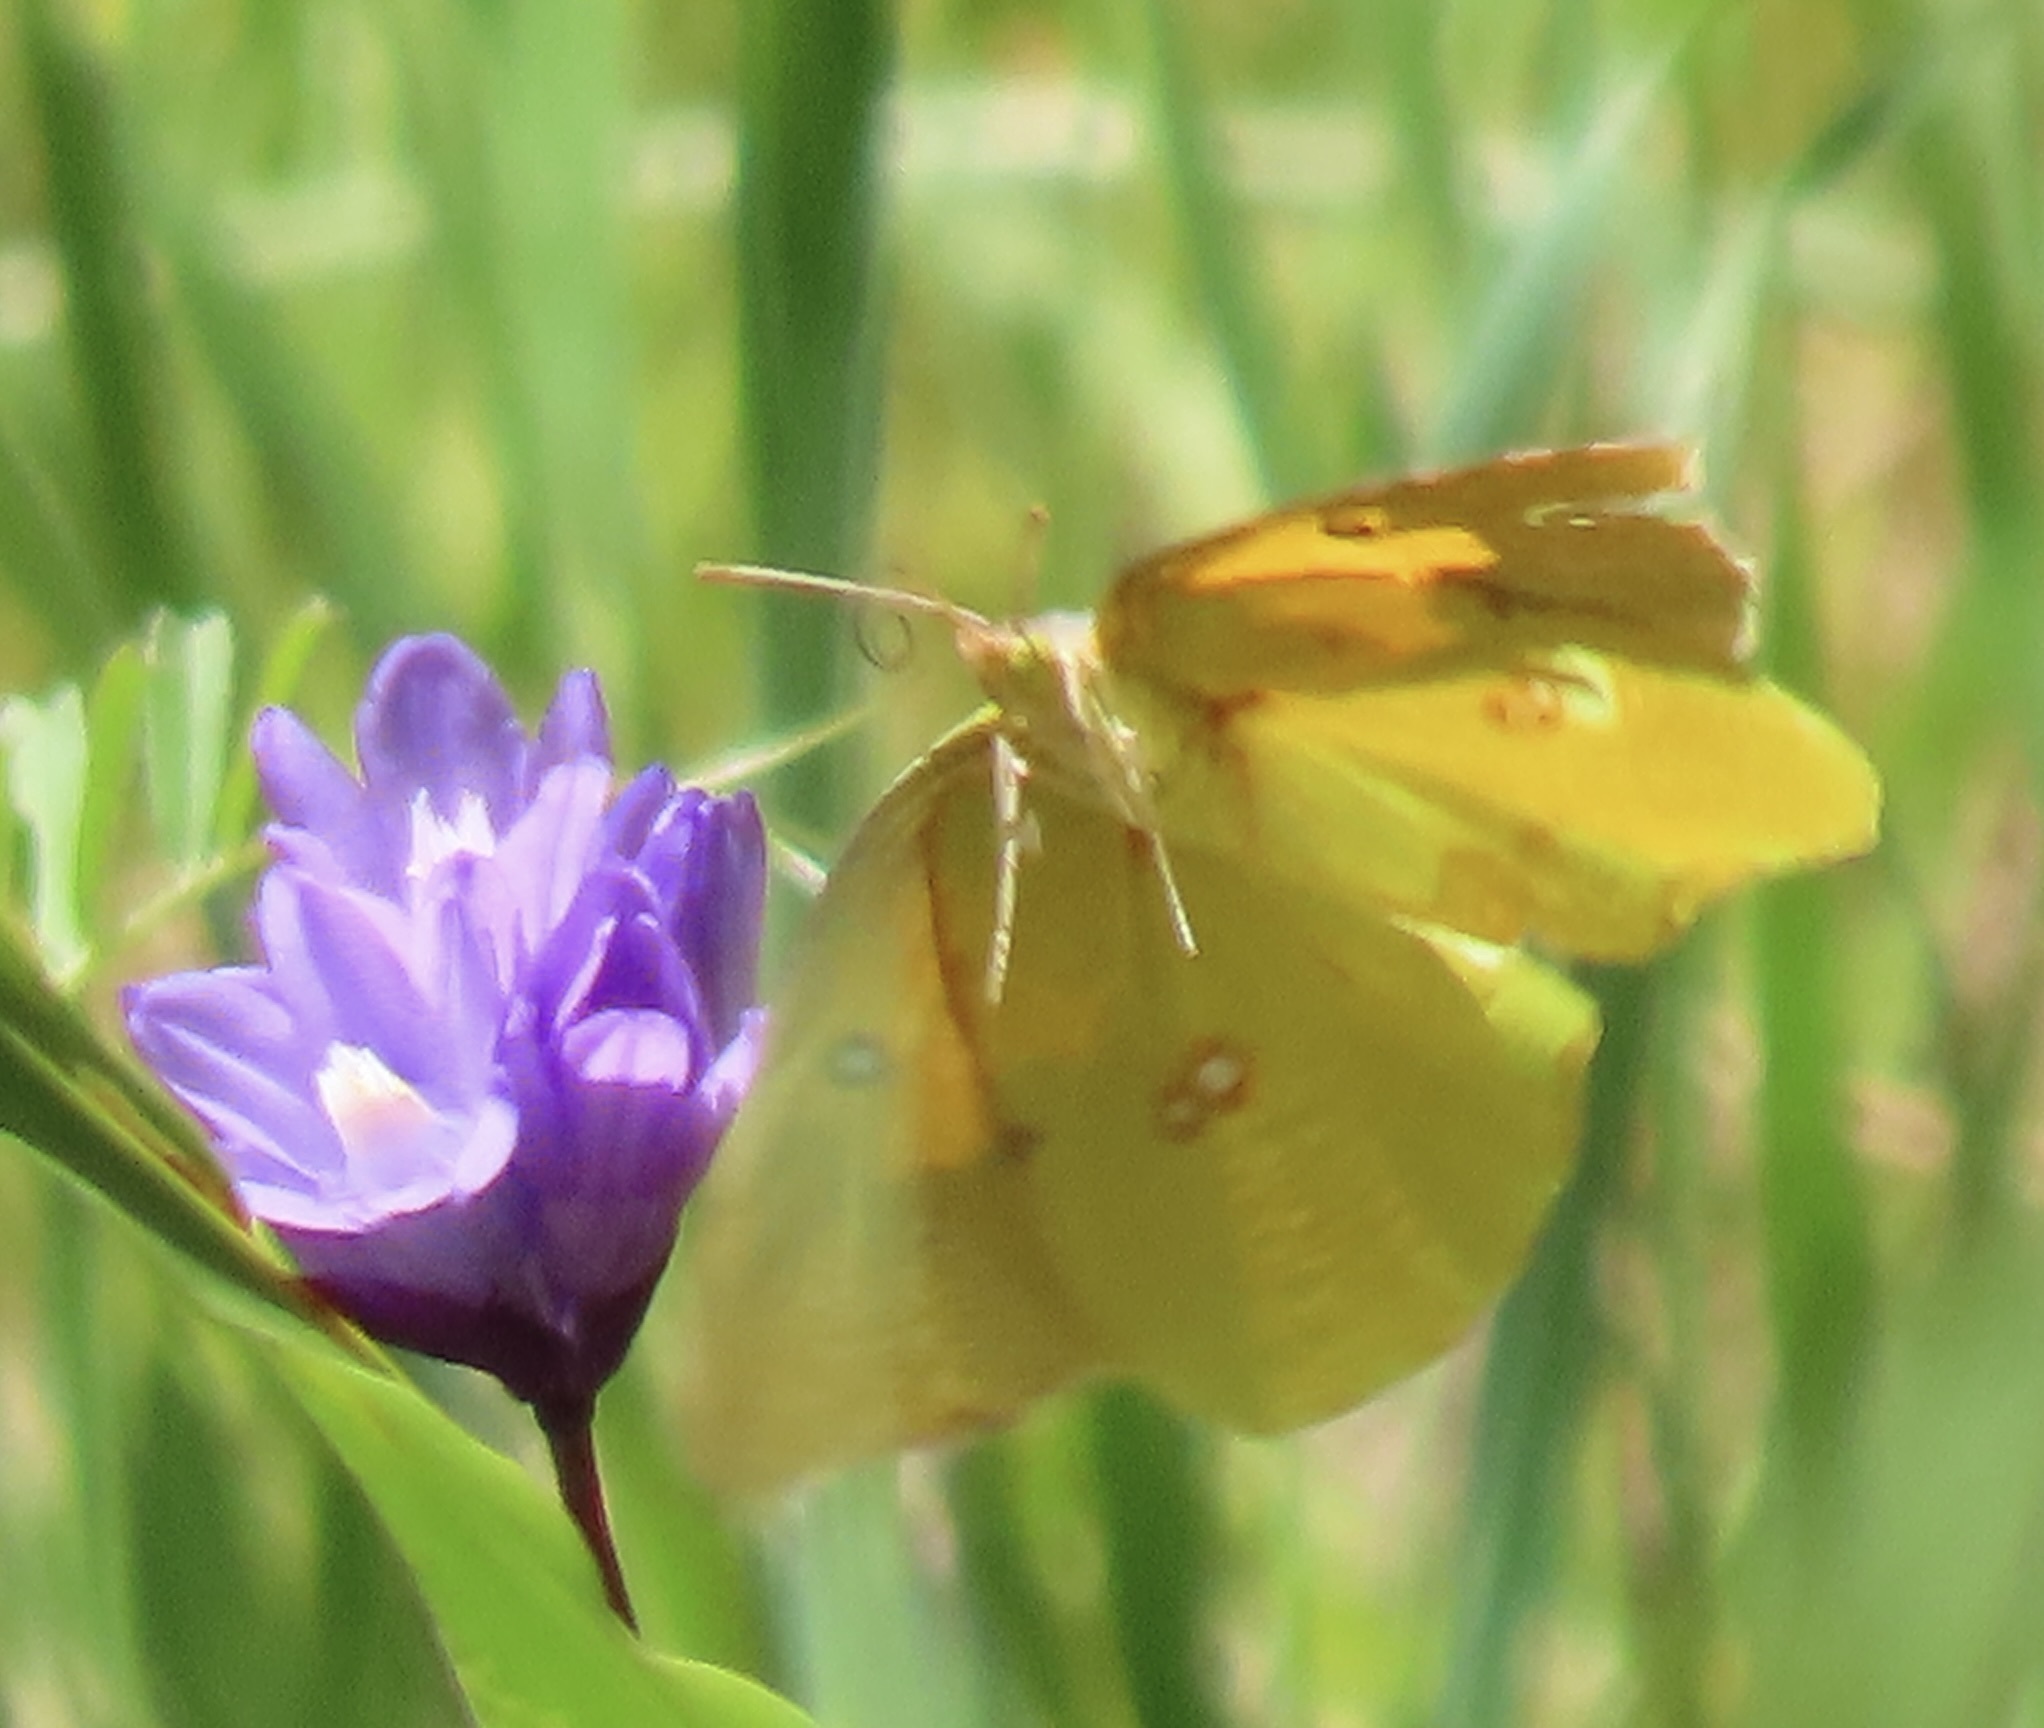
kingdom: Animalia
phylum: Arthropoda
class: Insecta
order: Lepidoptera
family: Pieridae
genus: Zerene
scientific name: Zerene eurydice
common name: California dogface
